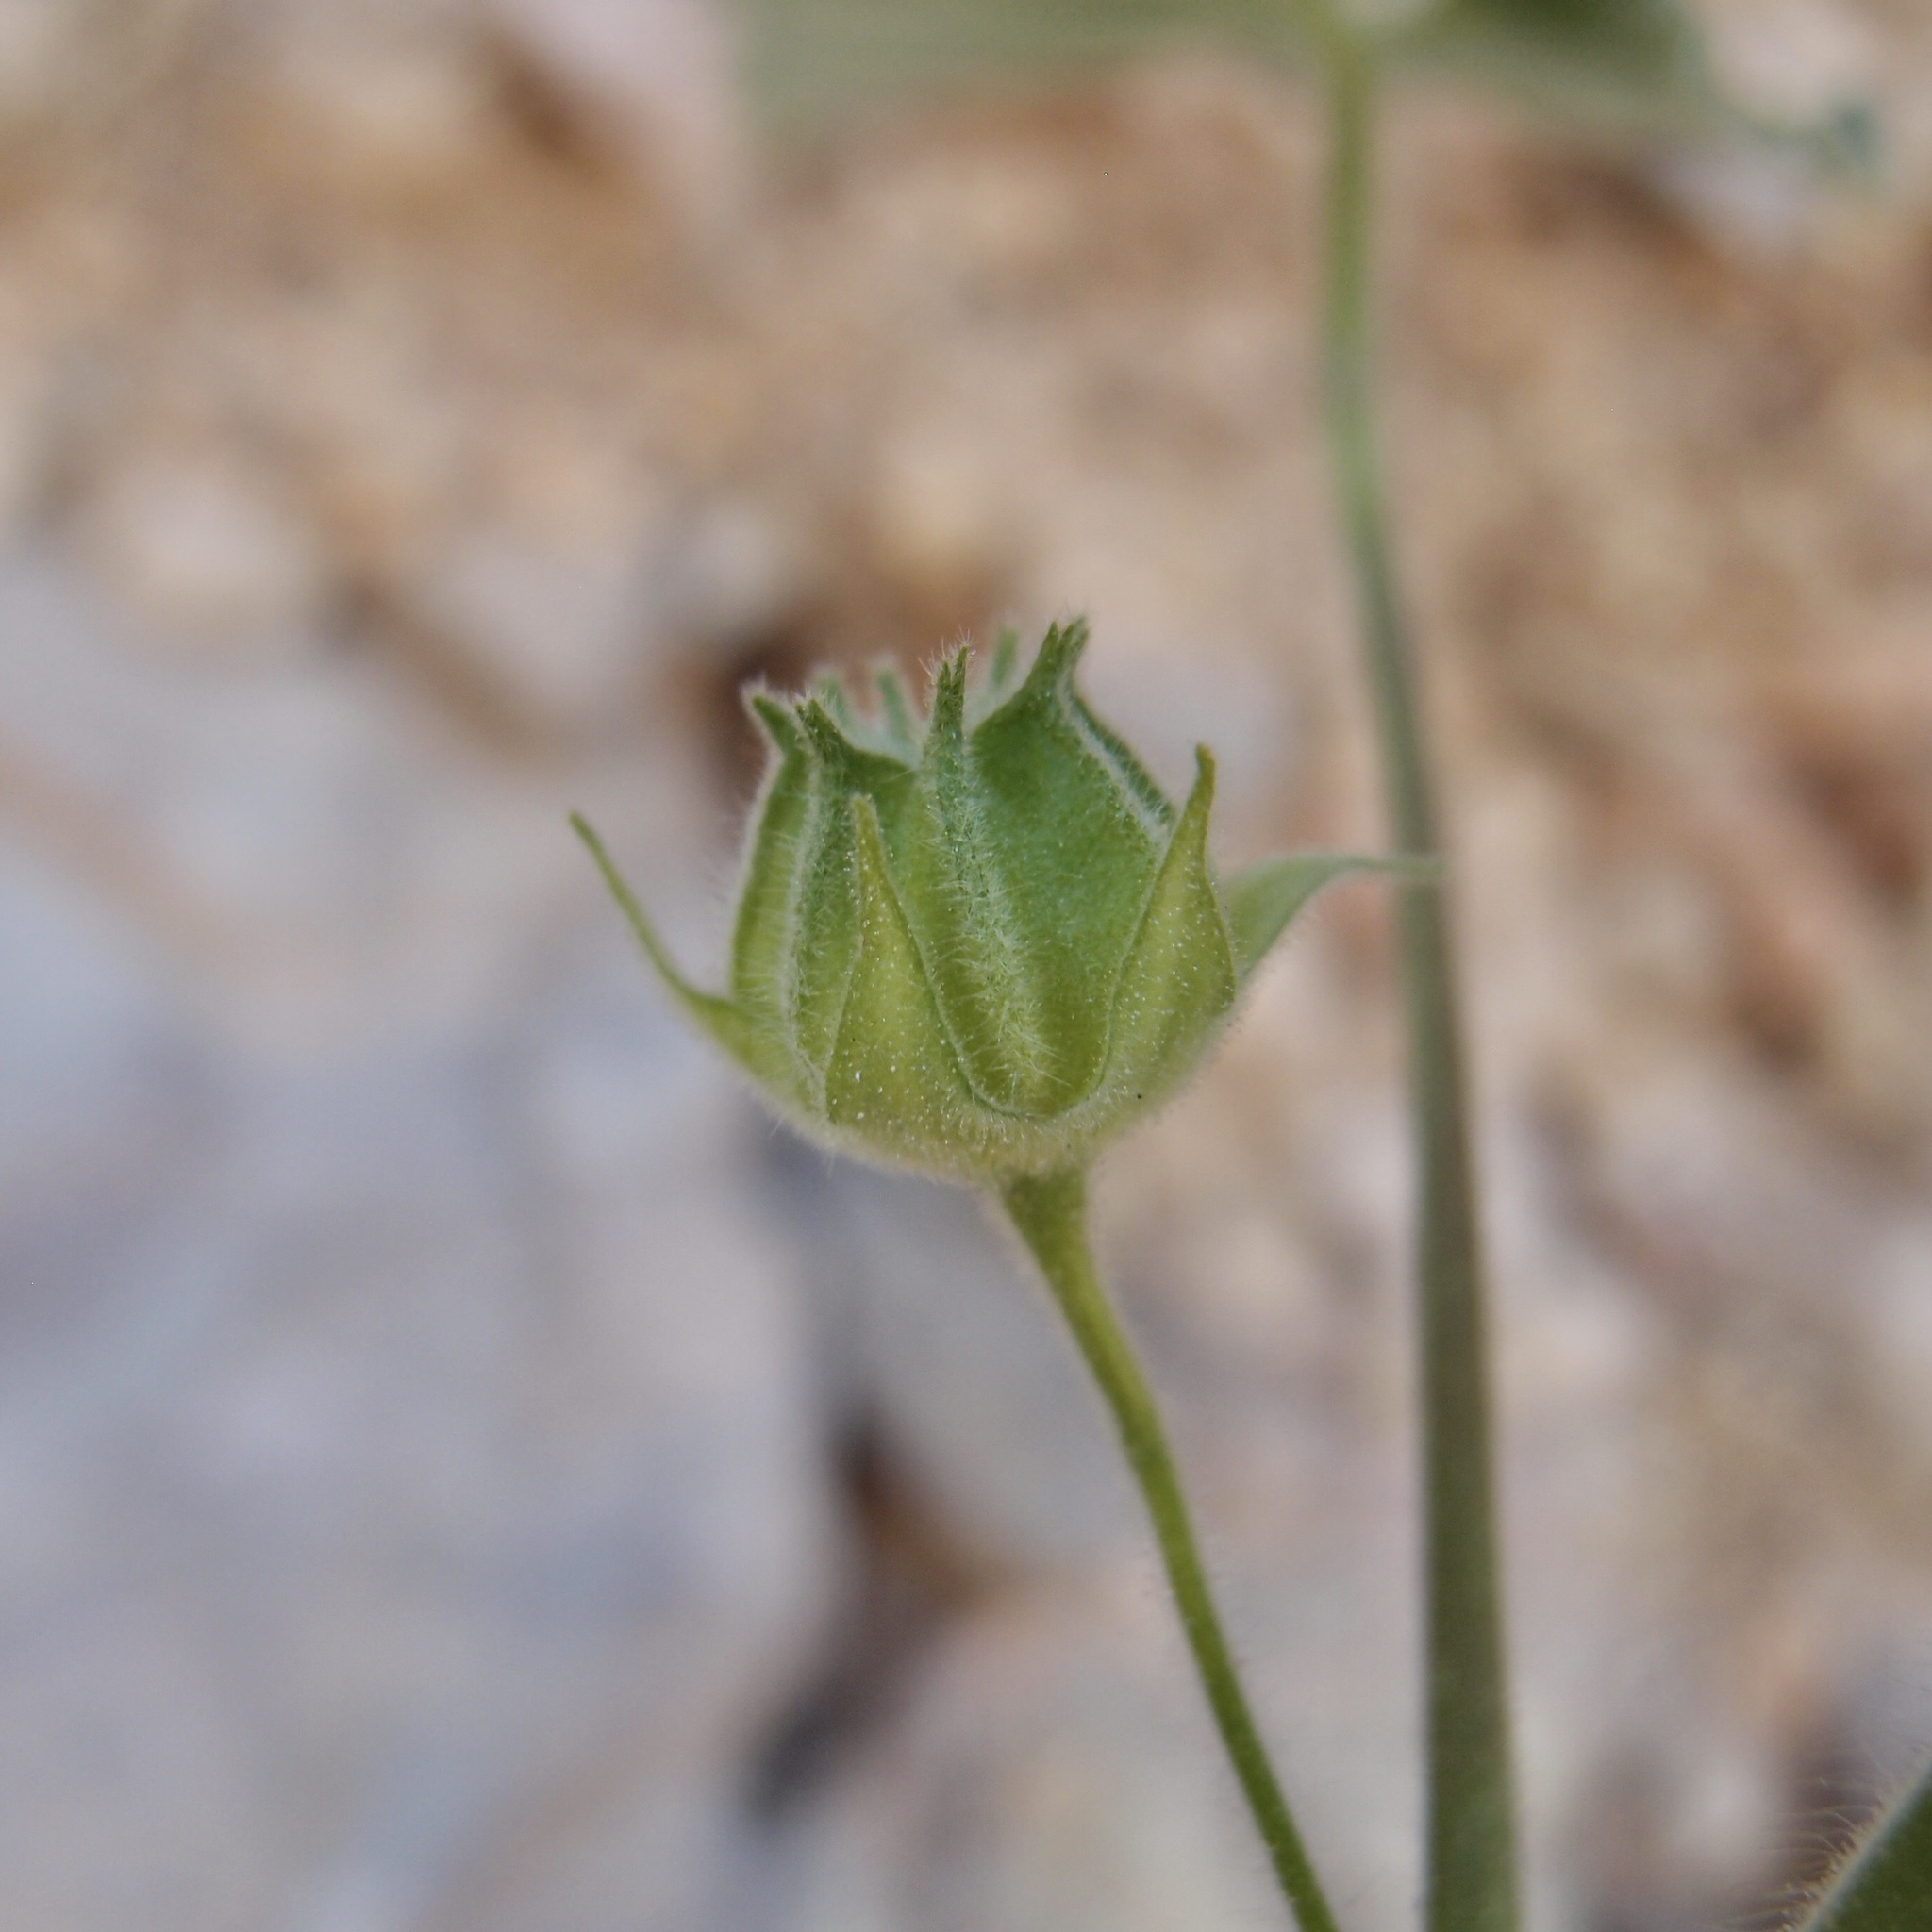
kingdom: Plantae
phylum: Tracheophyta
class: Magnoliopsida
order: Malvales
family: Malvaceae
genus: Abutilon
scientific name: Abutilon parishii
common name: Parish's abutilon
